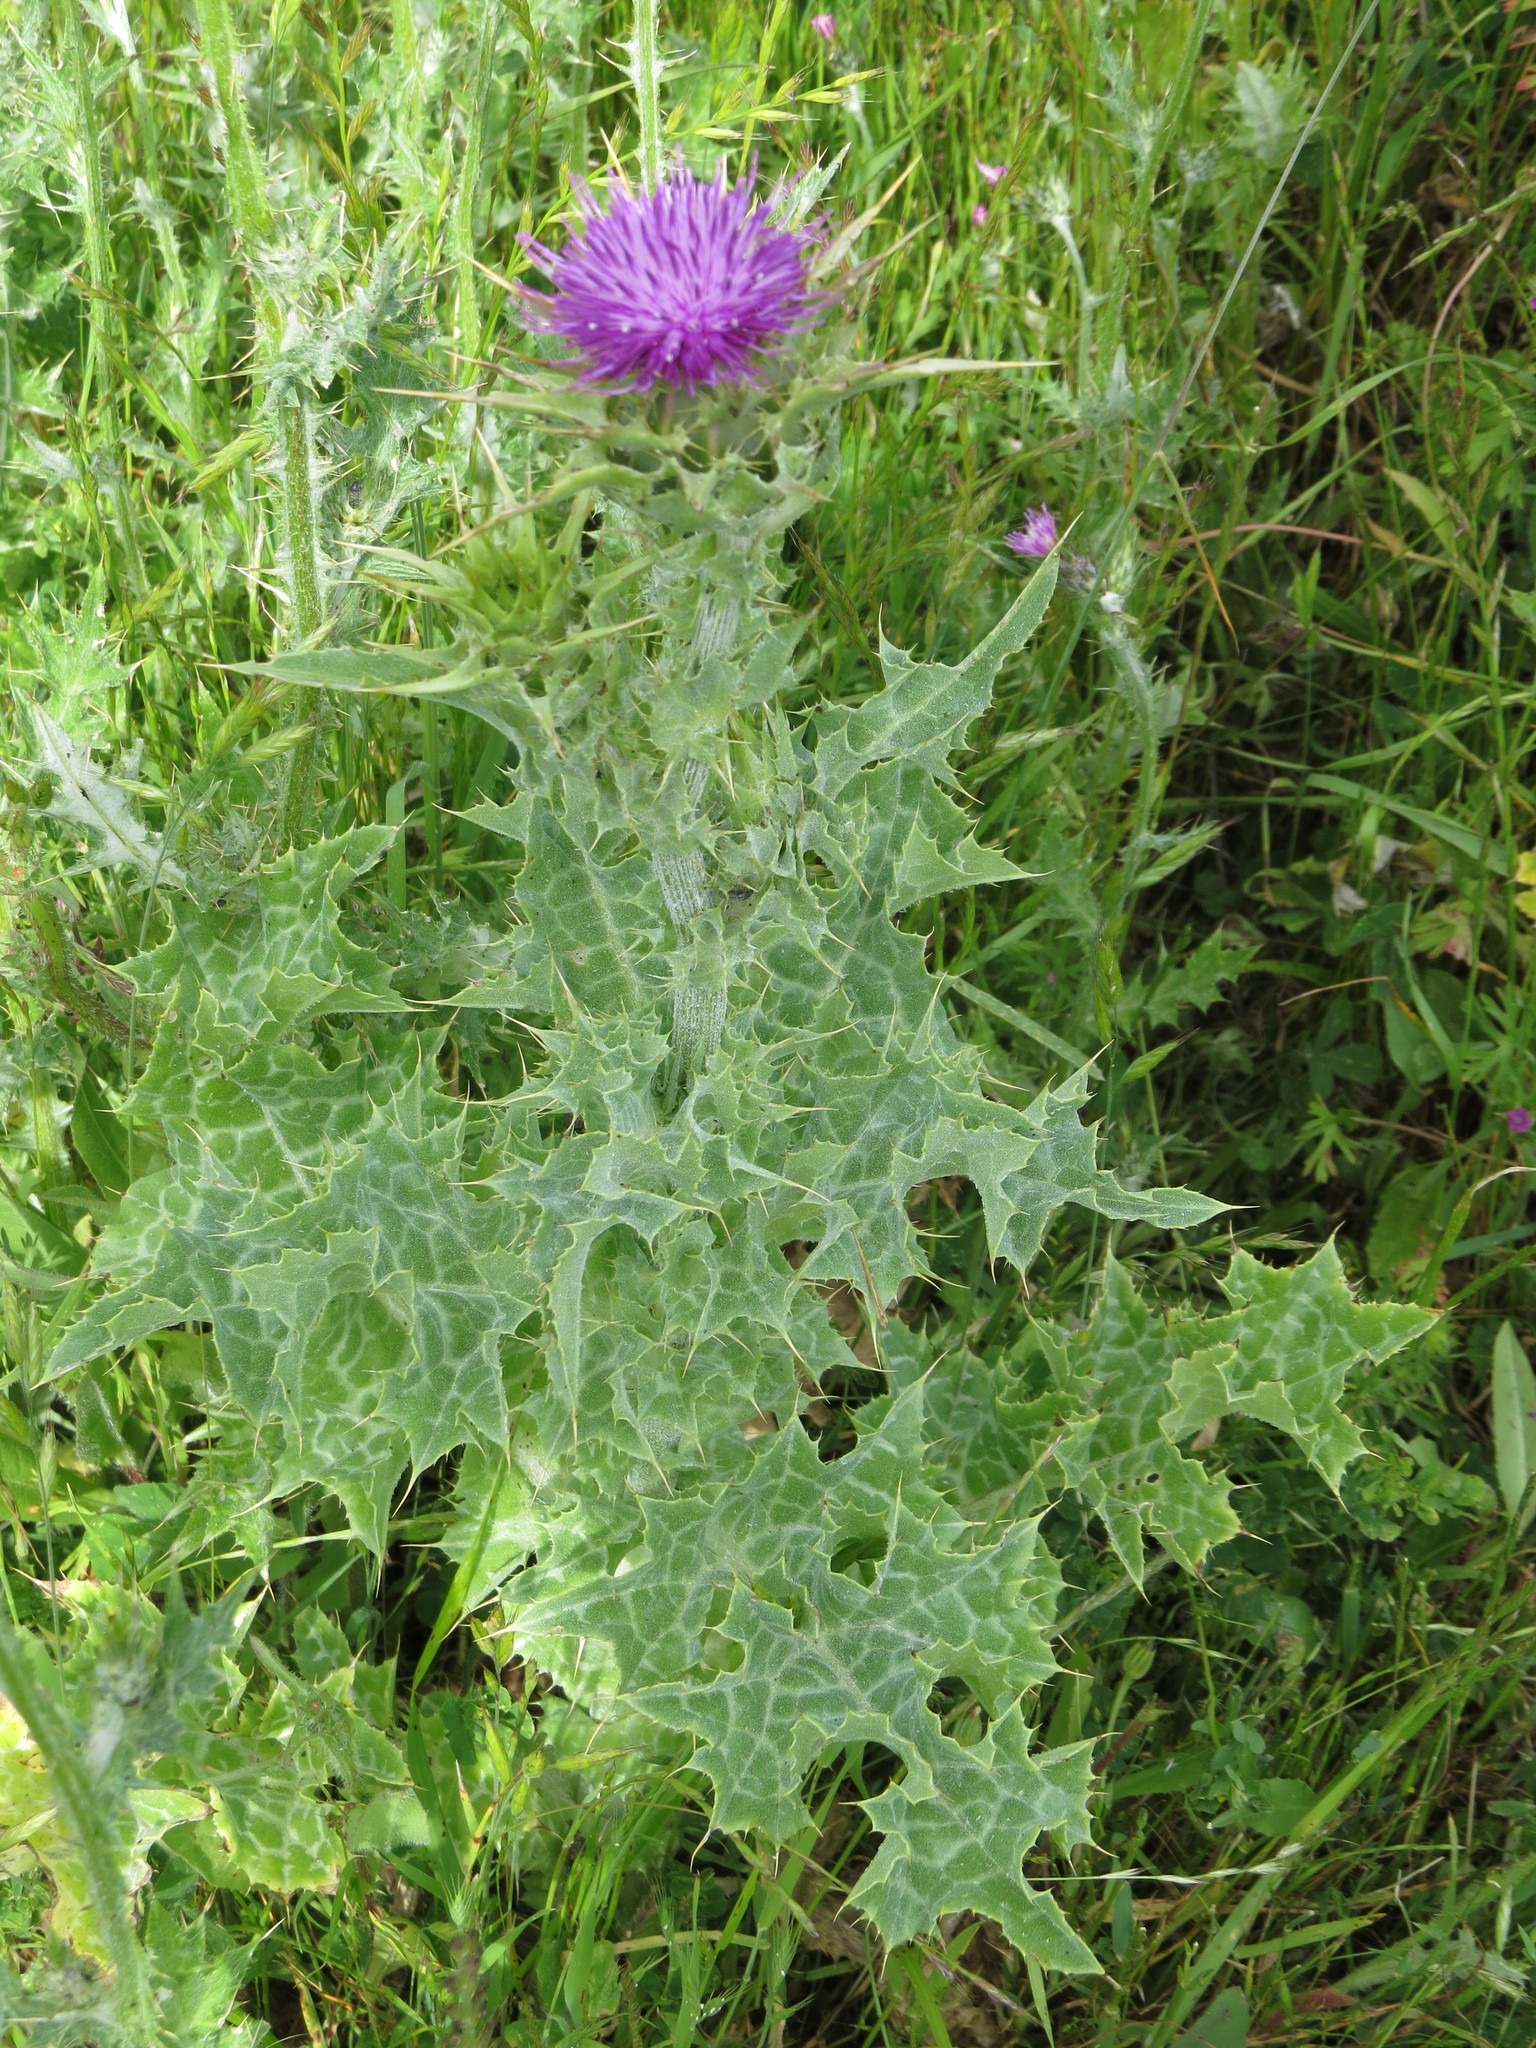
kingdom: Plantae
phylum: Tracheophyta
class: Magnoliopsida
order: Asterales
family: Asteraceae
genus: Silybum
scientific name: Silybum marianum
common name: Milk thistle
